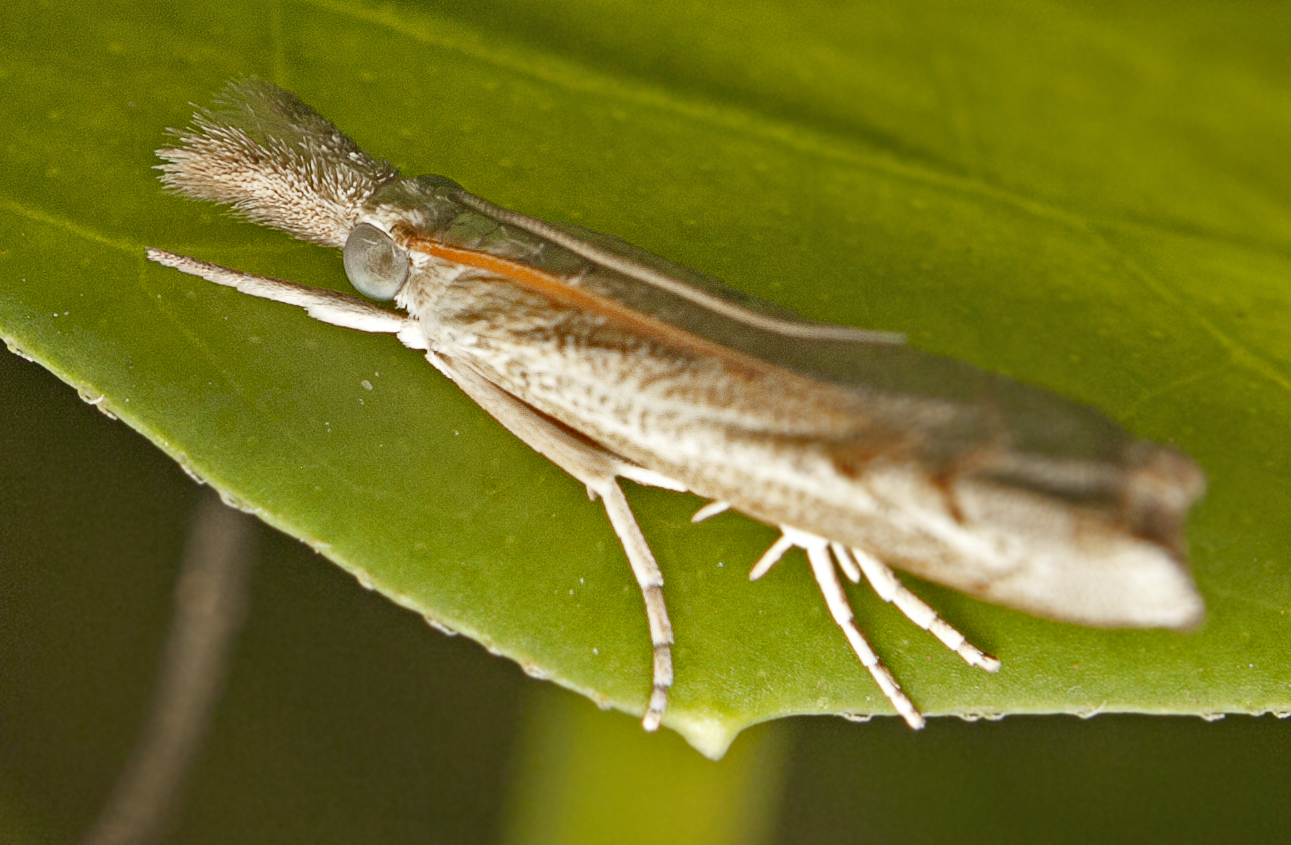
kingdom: Animalia
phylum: Arthropoda
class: Insecta
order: Lepidoptera
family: Crambidae
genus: Culladia
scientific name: Culladia cuneiferellus
